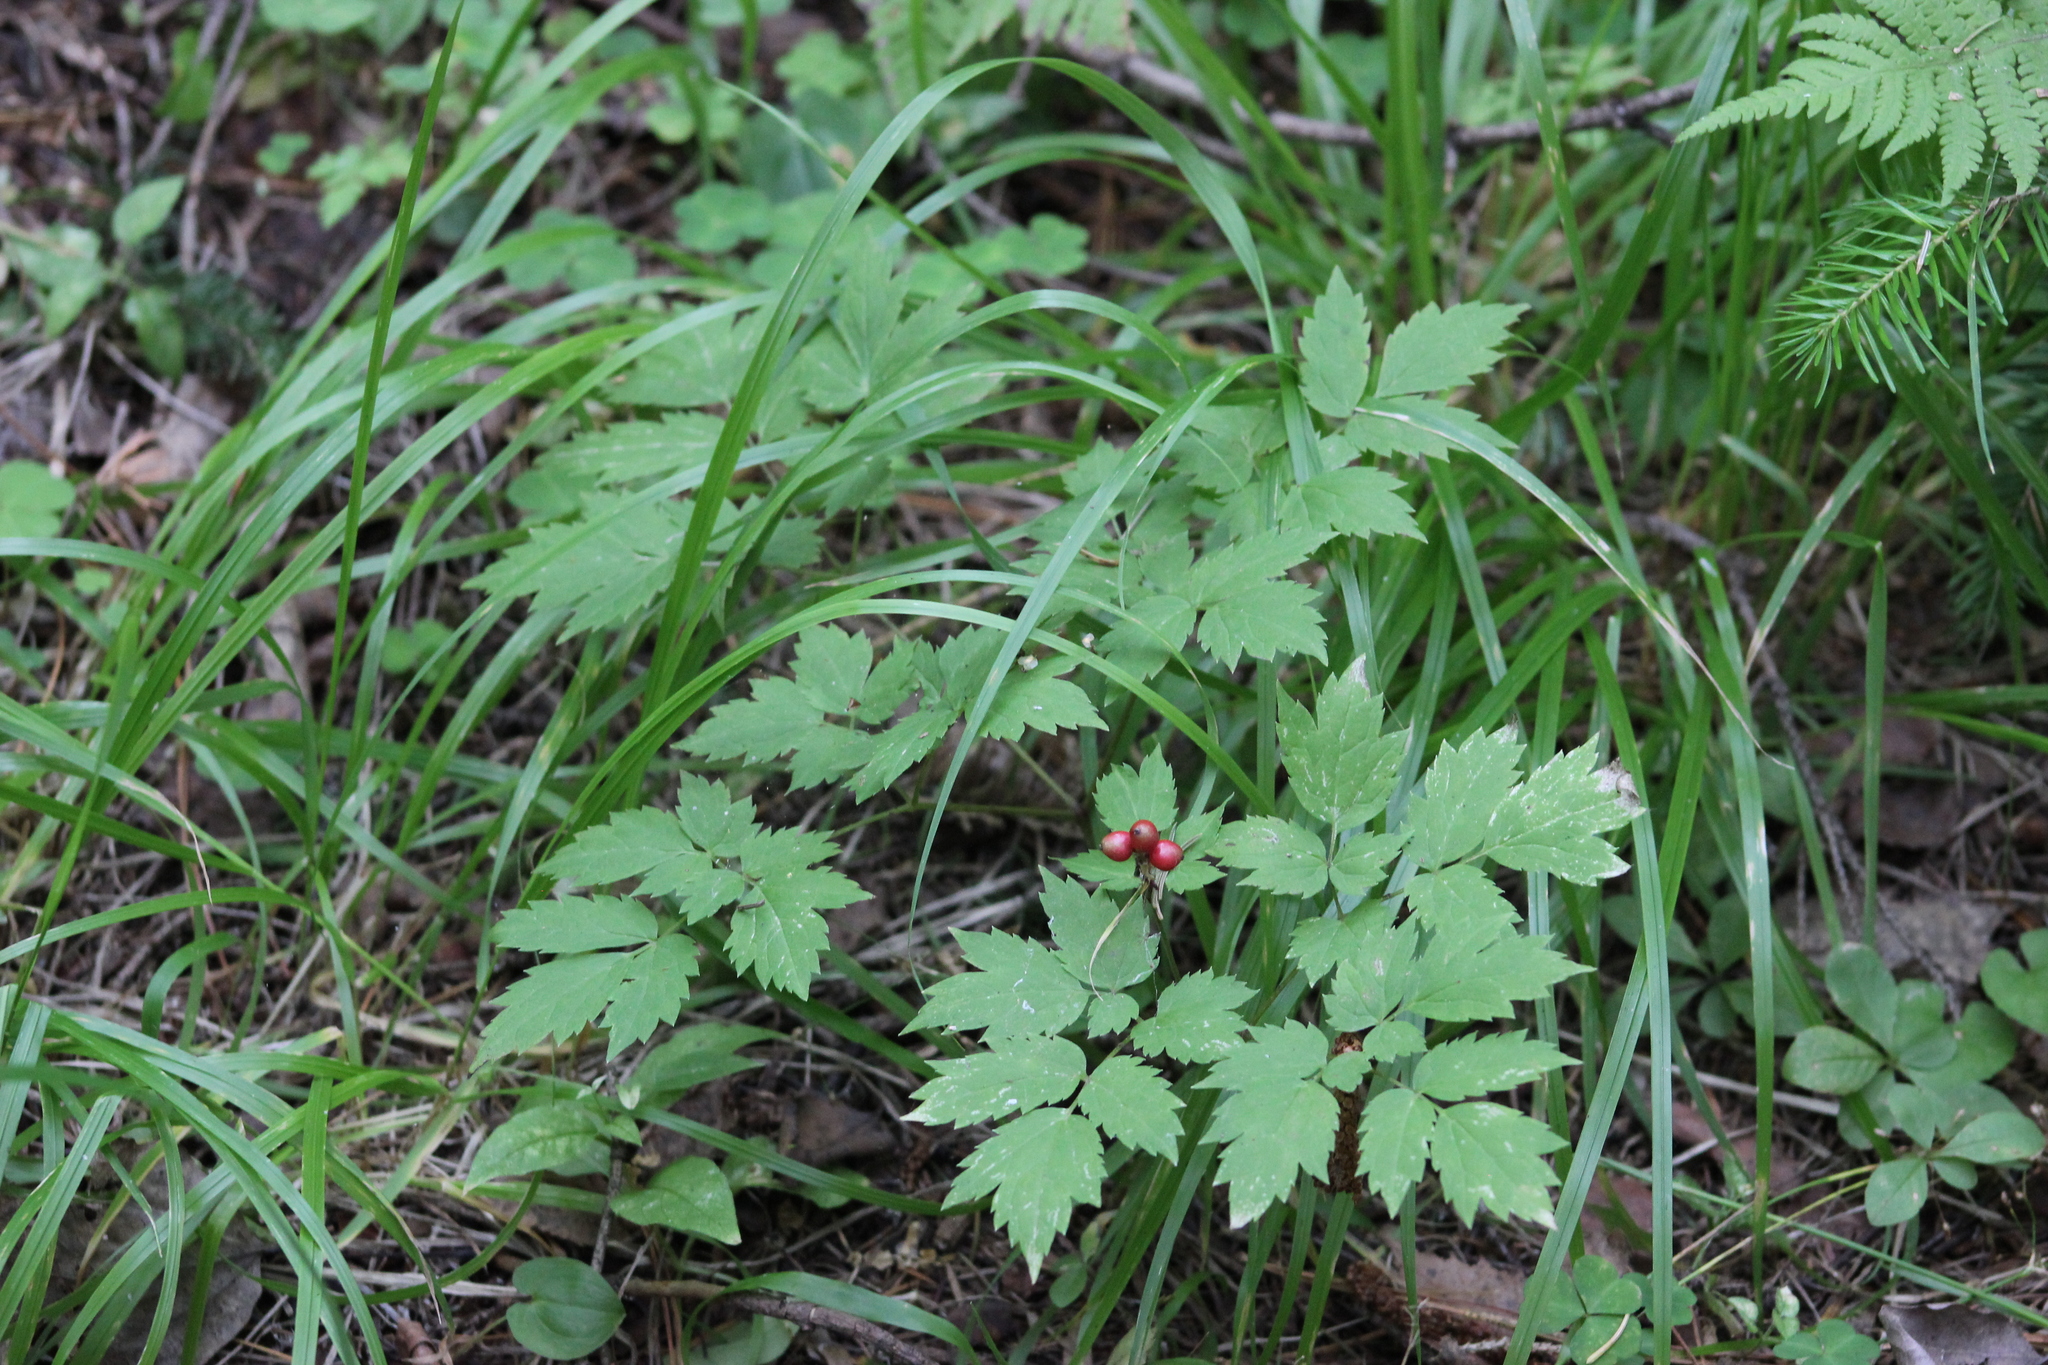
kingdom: Plantae
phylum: Tracheophyta
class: Magnoliopsida
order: Ranunculales
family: Ranunculaceae
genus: Actaea
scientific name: Actaea erythrocarpa
